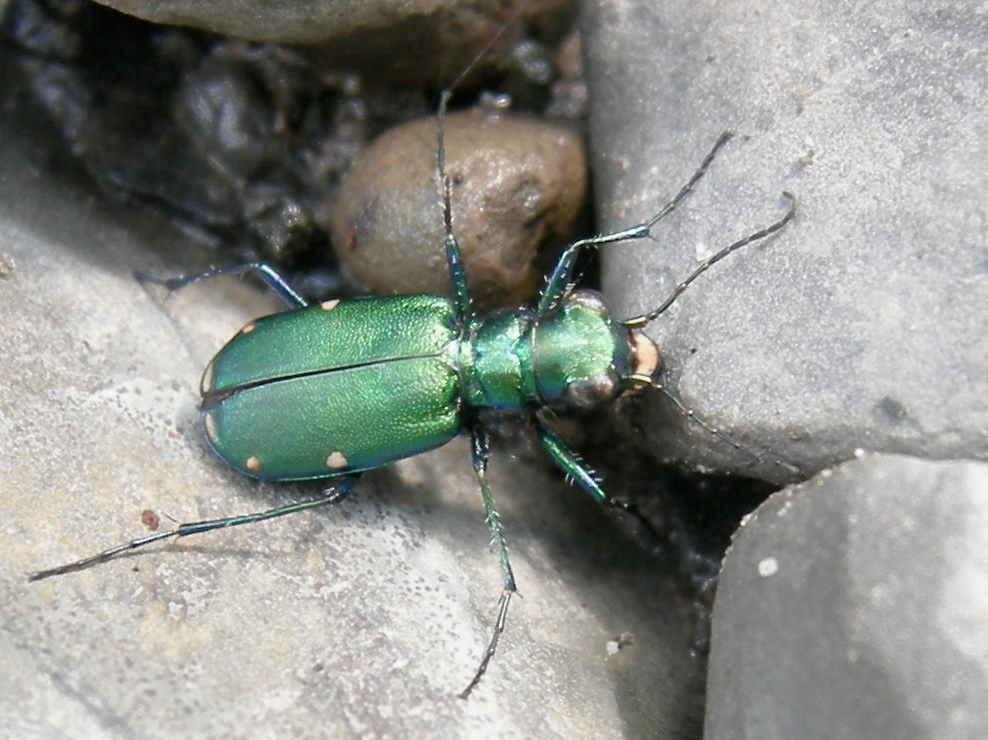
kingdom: Animalia
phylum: Arthropoda
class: Insecta
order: Coleoptera
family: Carabidae
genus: Cicindela
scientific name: Cicindela sexguttata
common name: Six-spotted tiger beetle
